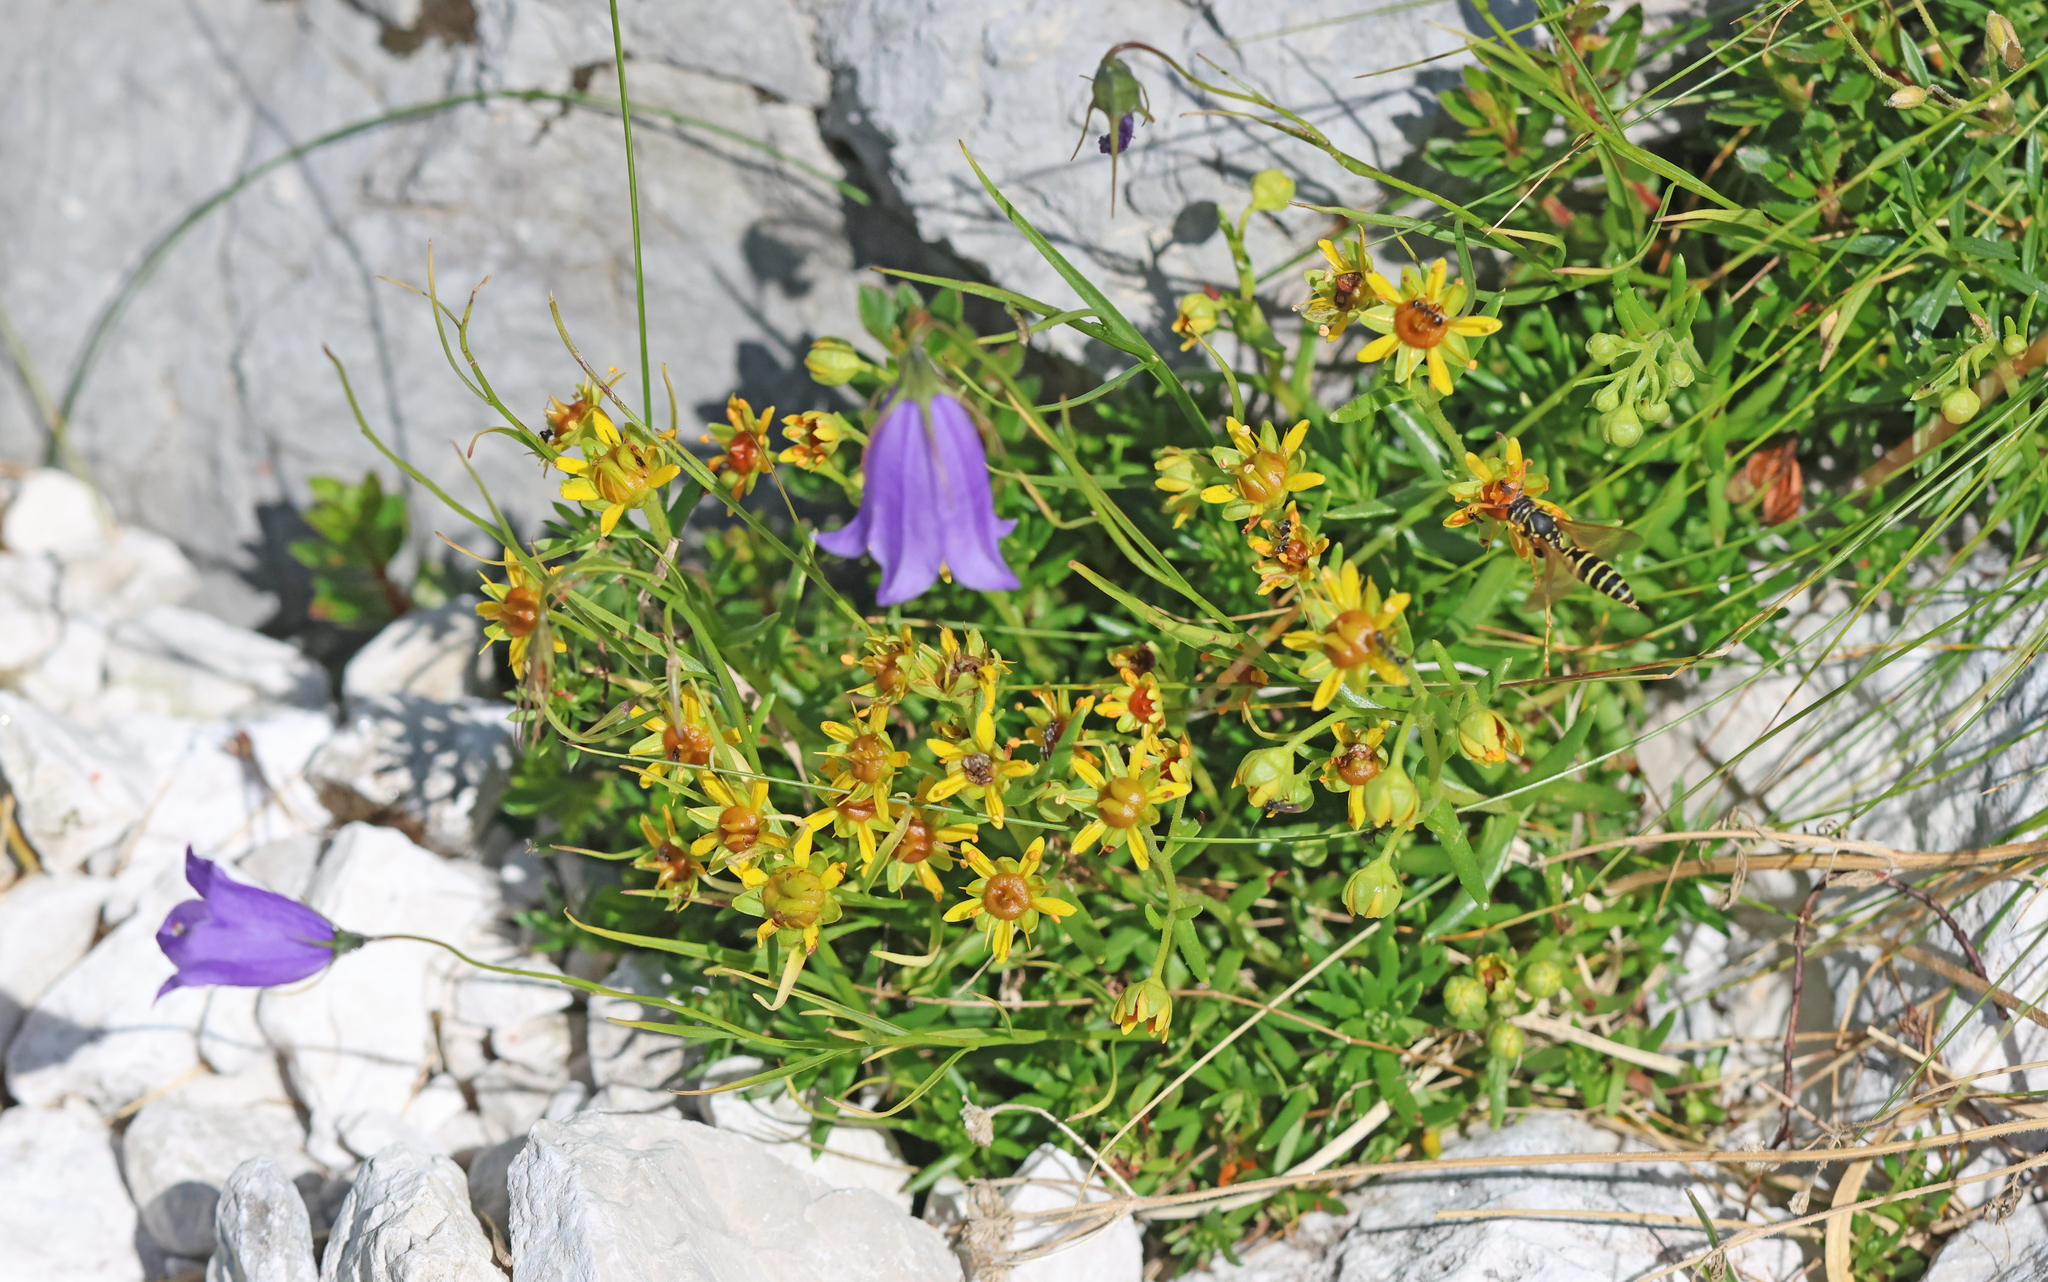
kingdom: Plantae
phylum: Tracheophyta
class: Magnoliopsida
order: Saxifragales
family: Saxifragaceae
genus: Saxifraga
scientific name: Saxifraga aizoides
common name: Yellow mountain saxifrage
